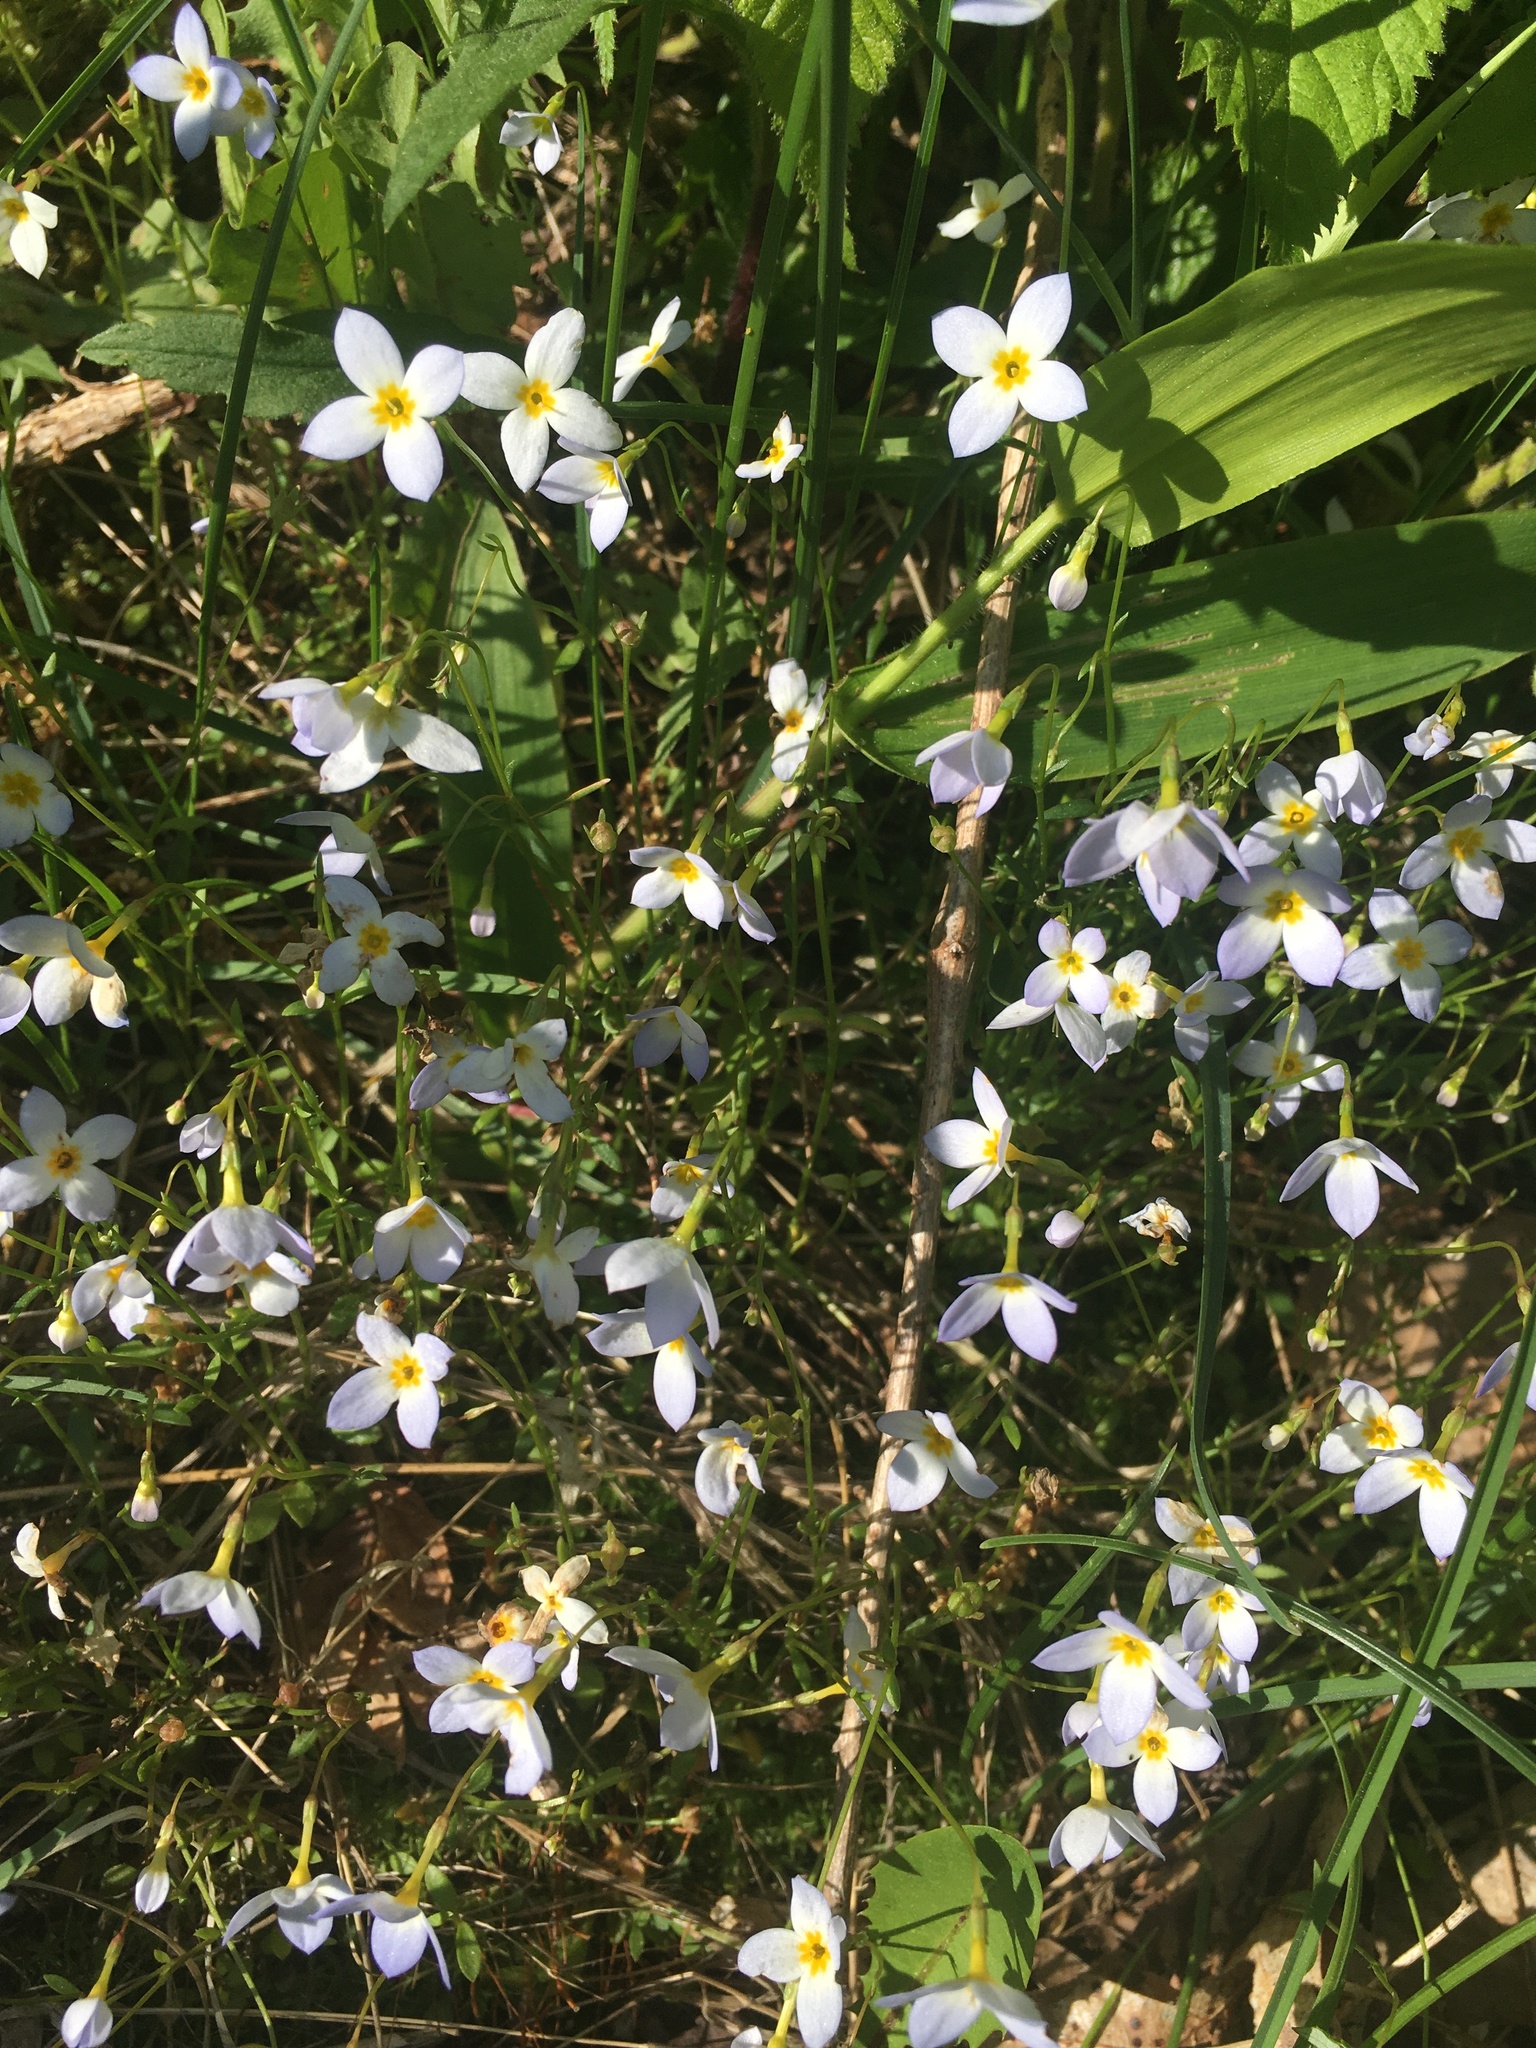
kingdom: Plantae
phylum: Tracheophyta
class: Magnoliopsida
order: Gentianales
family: Rubiaceae
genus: Houstonia
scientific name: Houstonia caerulea
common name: Bluets
